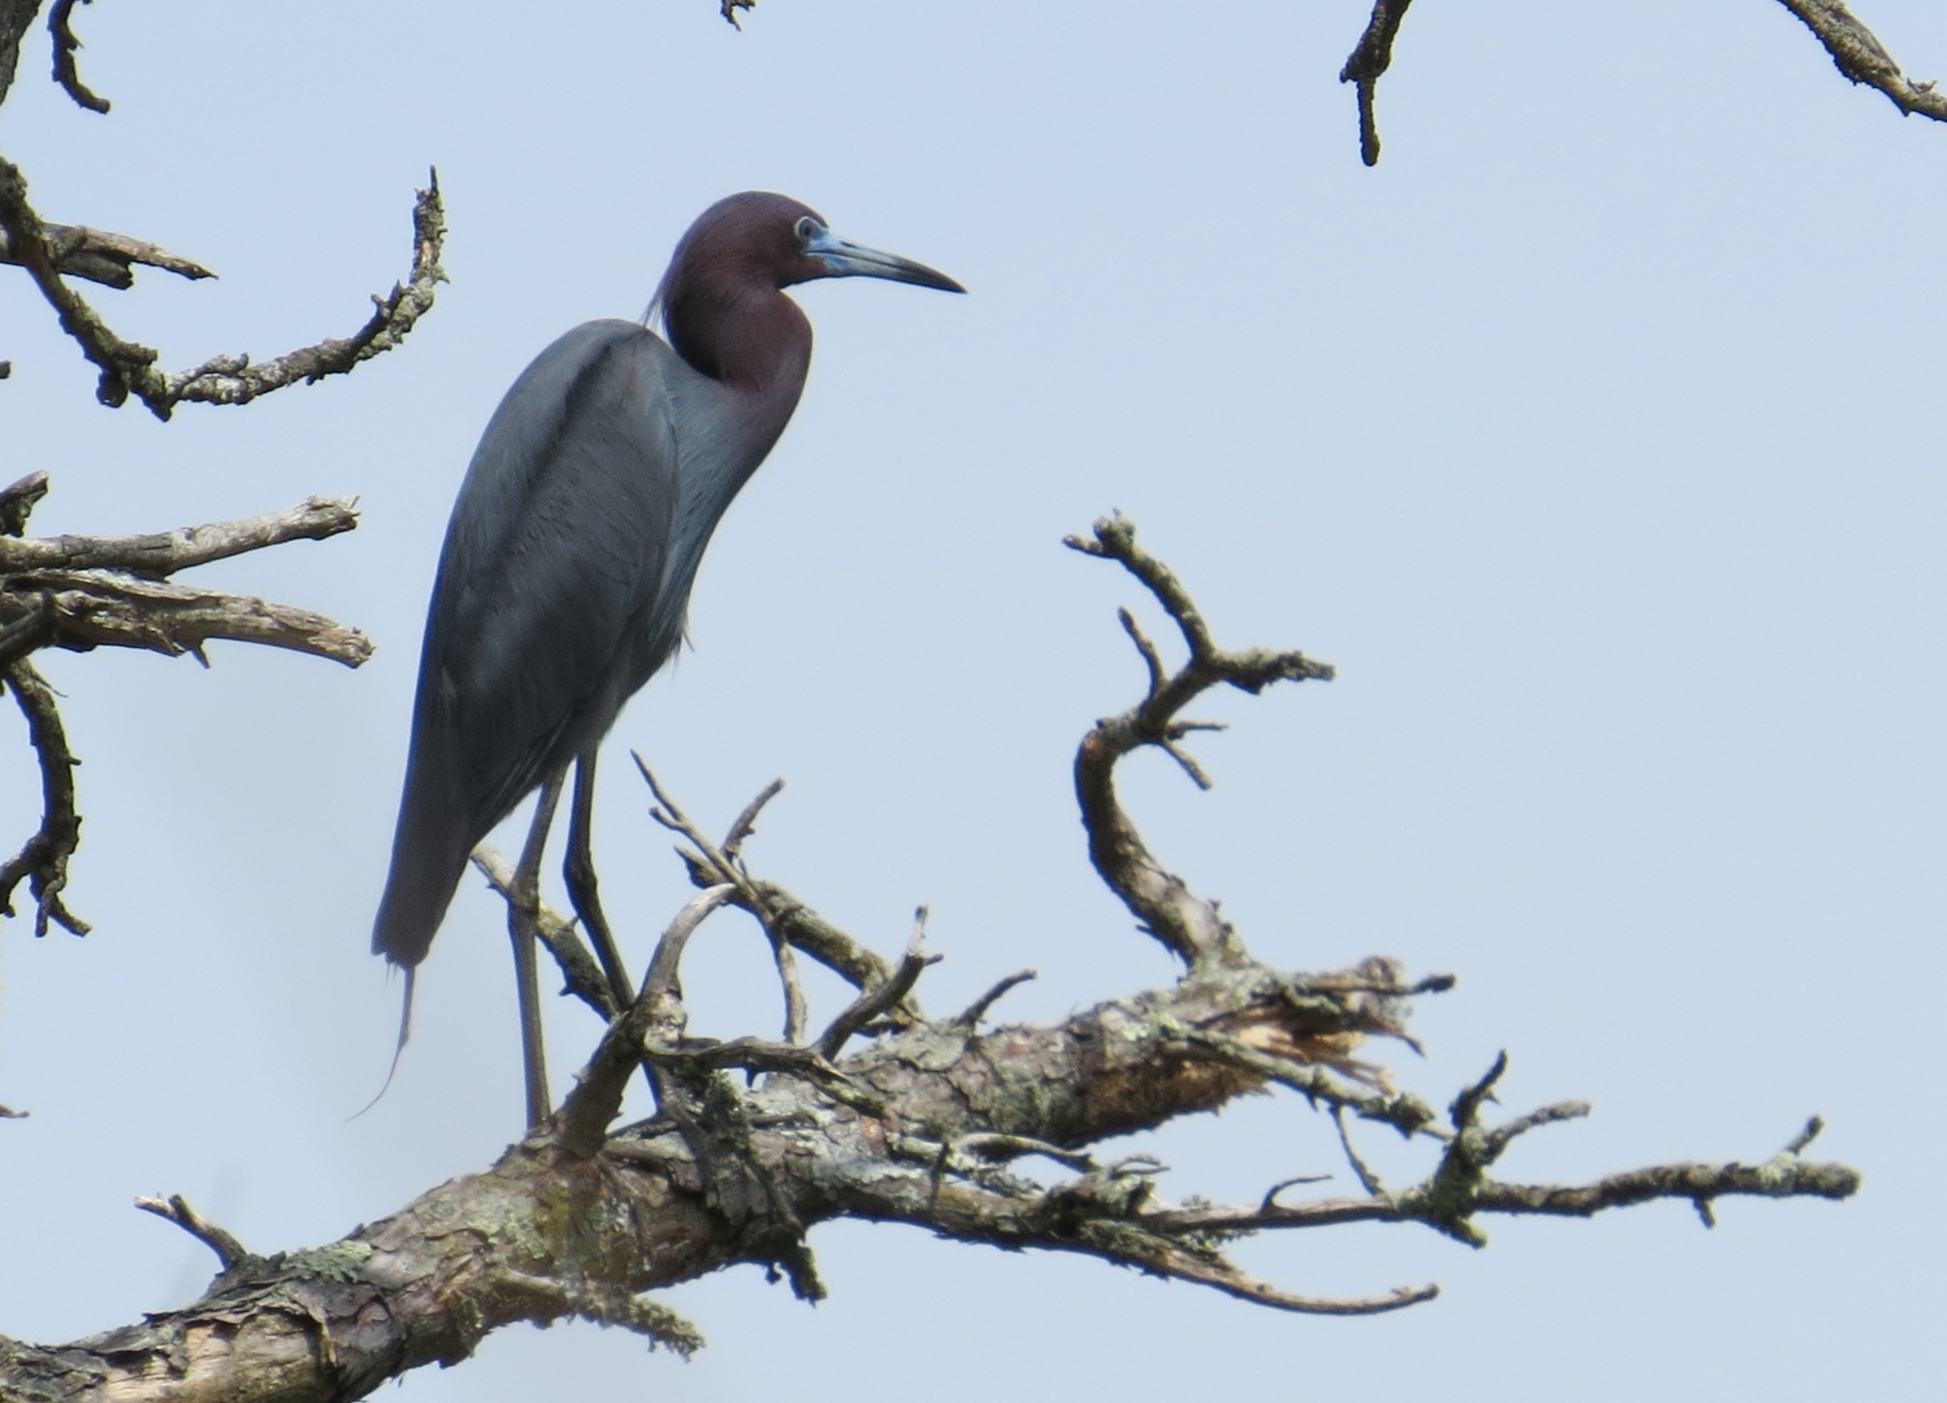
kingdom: Animalia
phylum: Chordata
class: Aves
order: Pelecaniformes
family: Ardeidae
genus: Egretta
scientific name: Egretta caerulea
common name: Little blue heron
